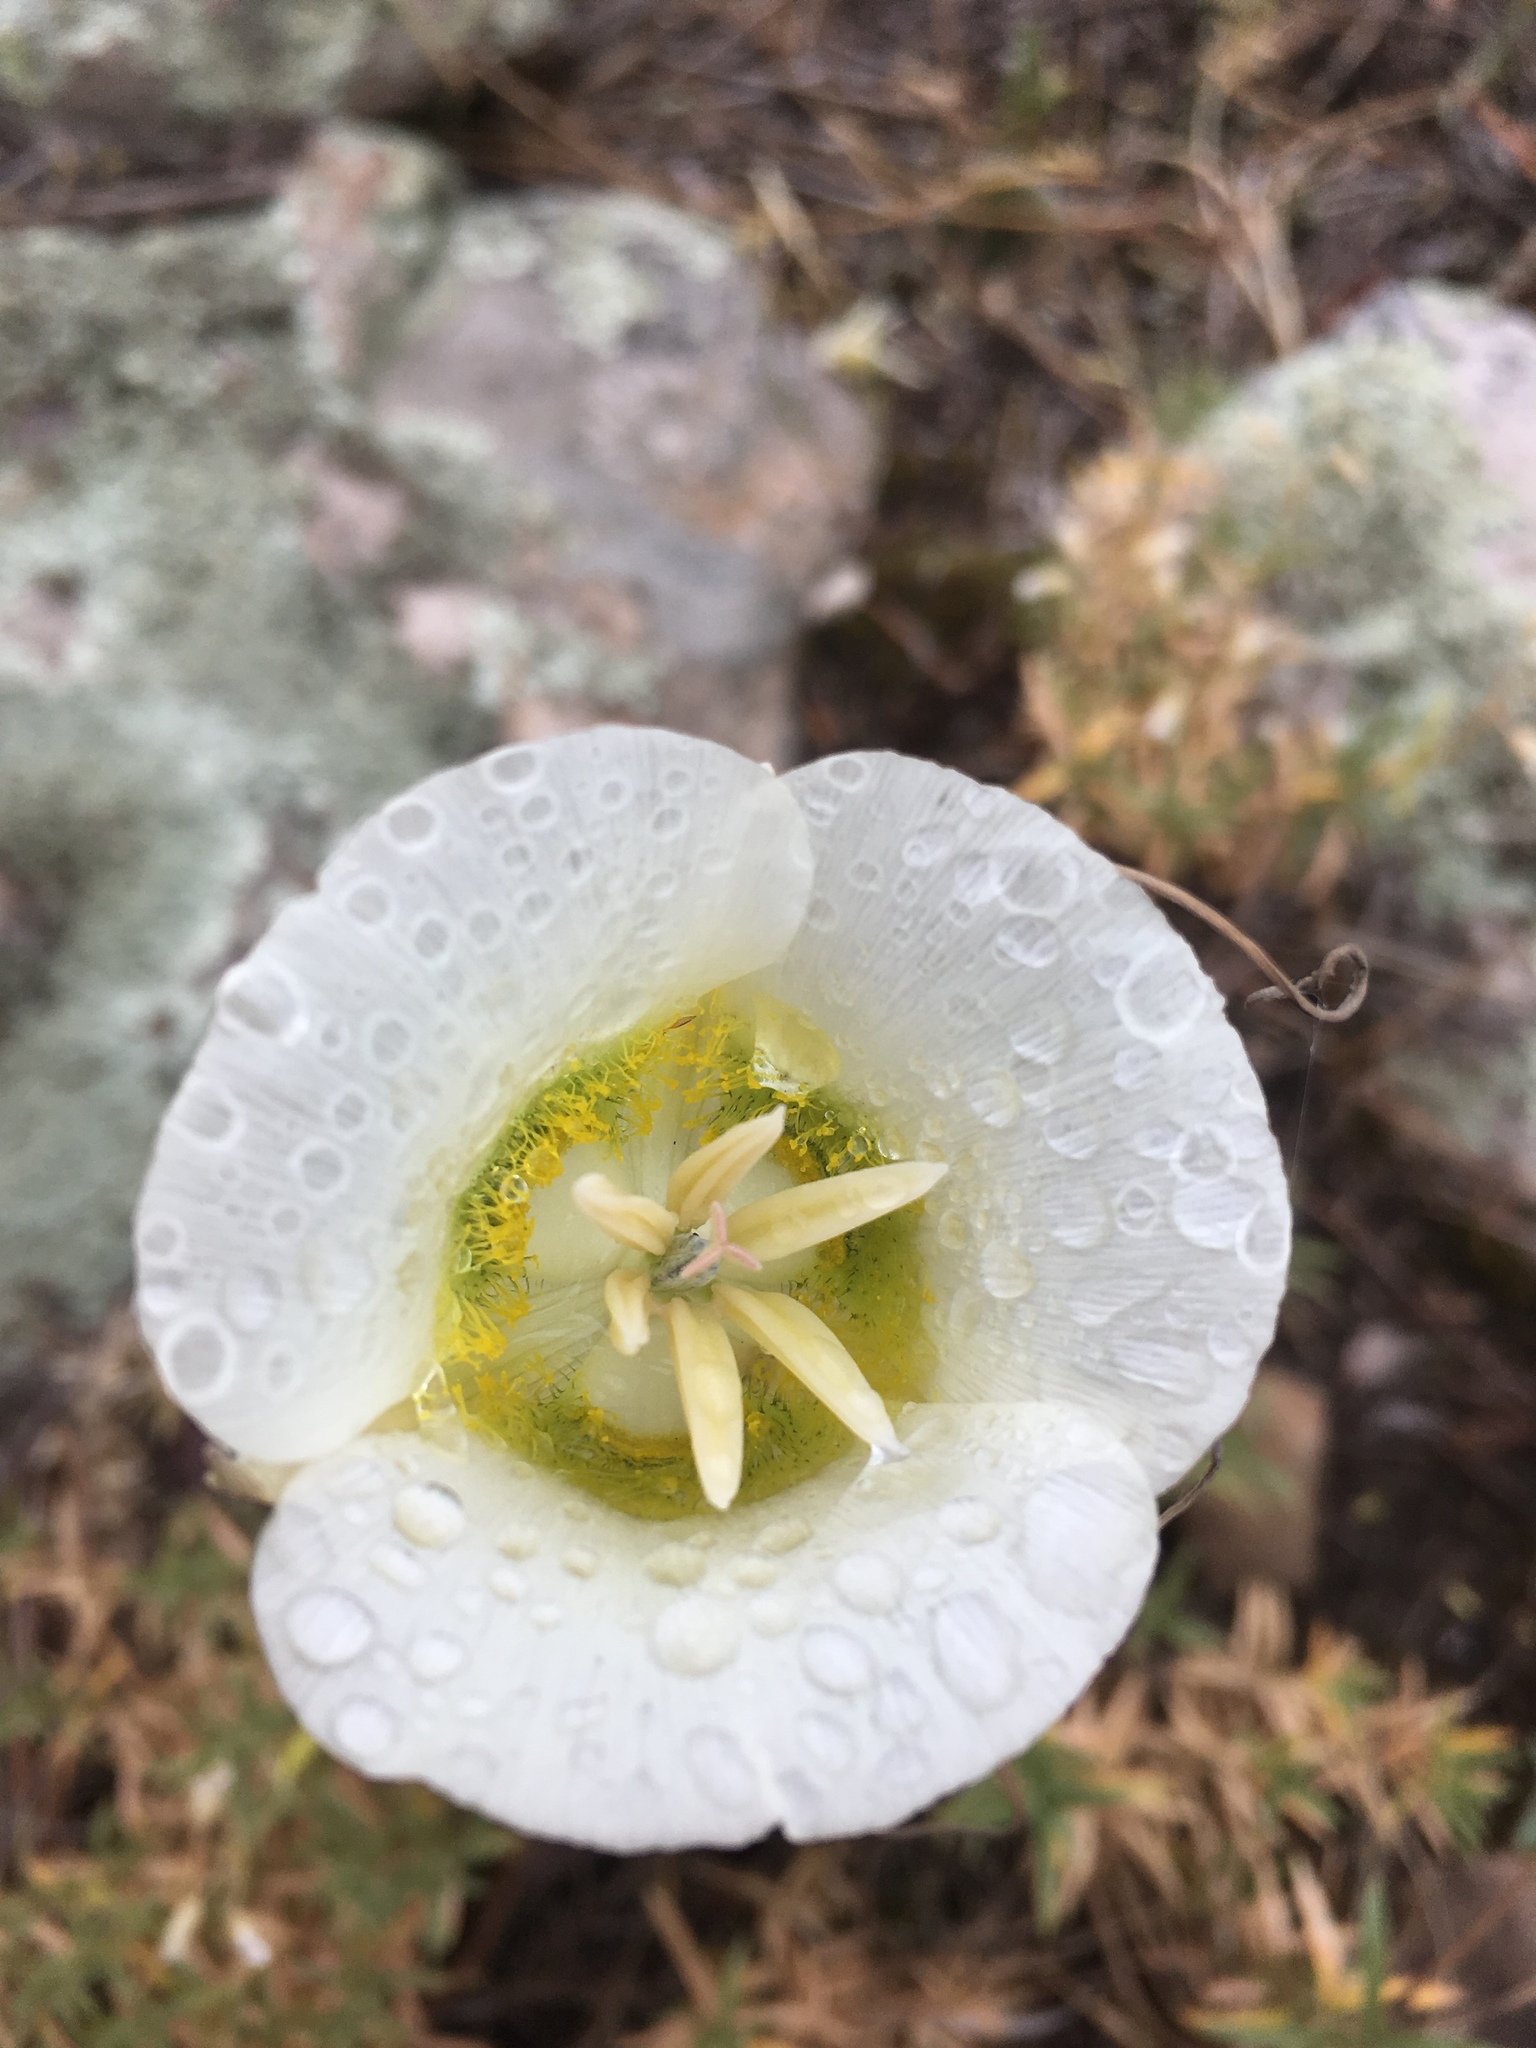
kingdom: Plantae
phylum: Tracheophyta
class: Liliopsida
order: Liliales
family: Liliaceae
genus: Calochortus
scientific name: Calochortus gunnisonii
